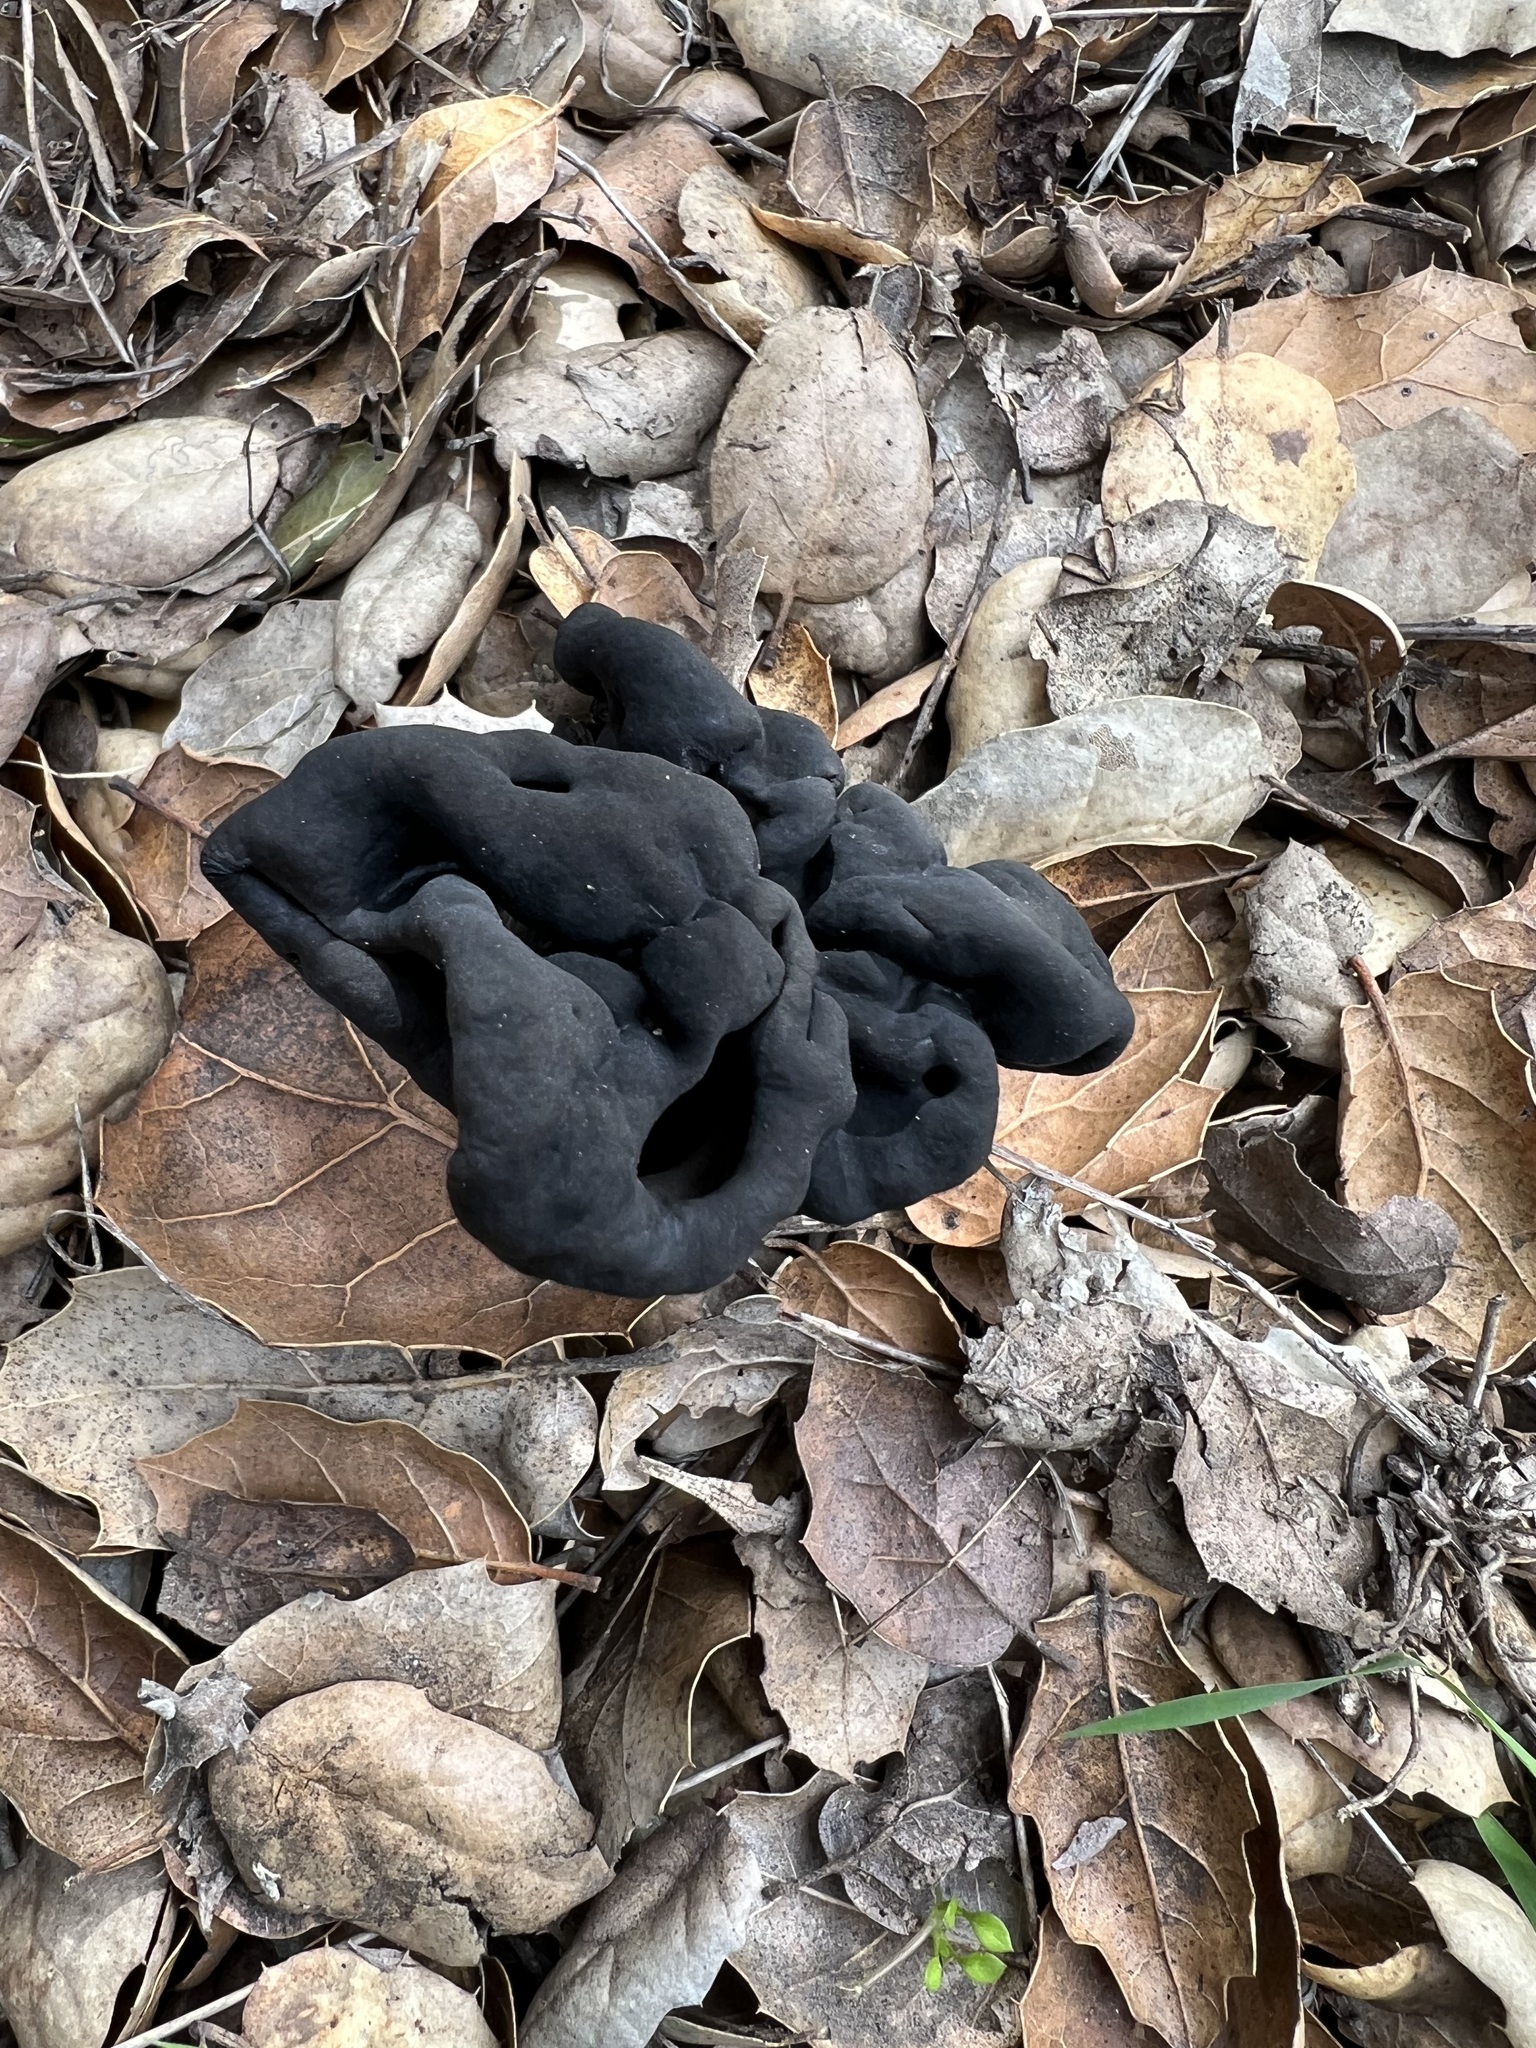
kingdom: Fungi
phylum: Ascomycota
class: Pezizomycetes
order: Pezizales
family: Helvellaceae
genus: Helvella
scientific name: Helvella dryophila
